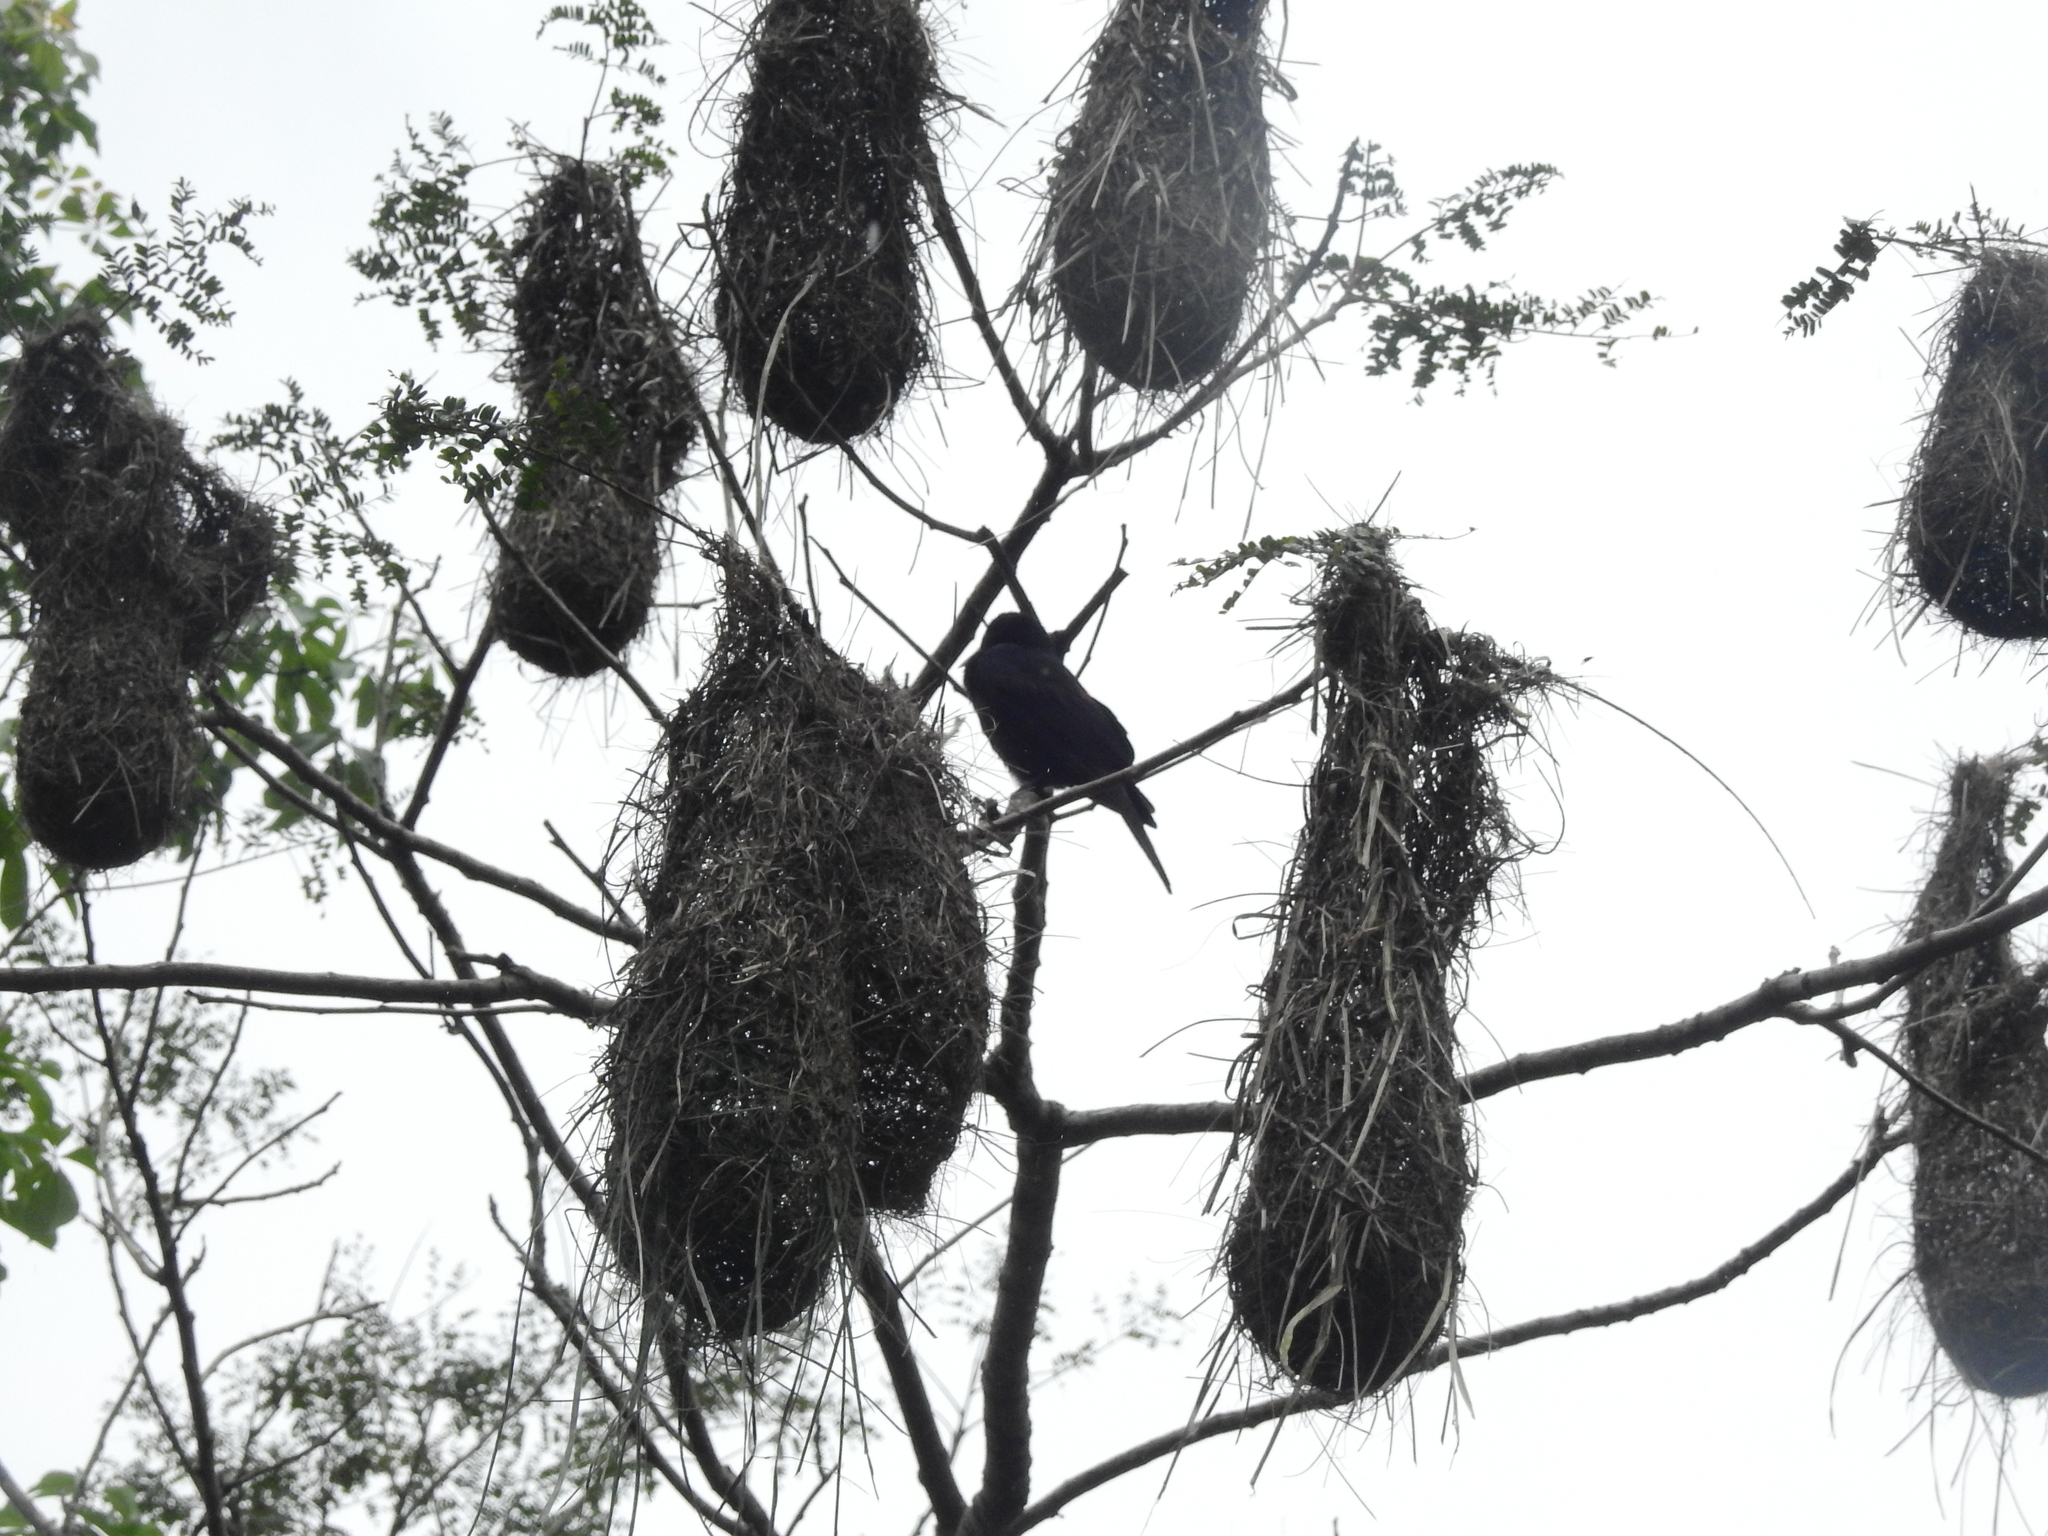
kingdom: Animalia
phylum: Chordata
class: Aves
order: Passeriformes
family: Icteridae
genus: Cacicus
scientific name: Cacicus haemorrhous
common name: Red-rumped cacique
